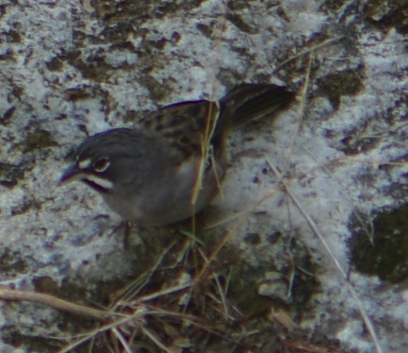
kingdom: Animalia
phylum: Chordata
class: Aves
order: Passeriformes
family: Passerellidae
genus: Peucaea
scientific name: Peucaea mystacalis
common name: Bridled sparrow
